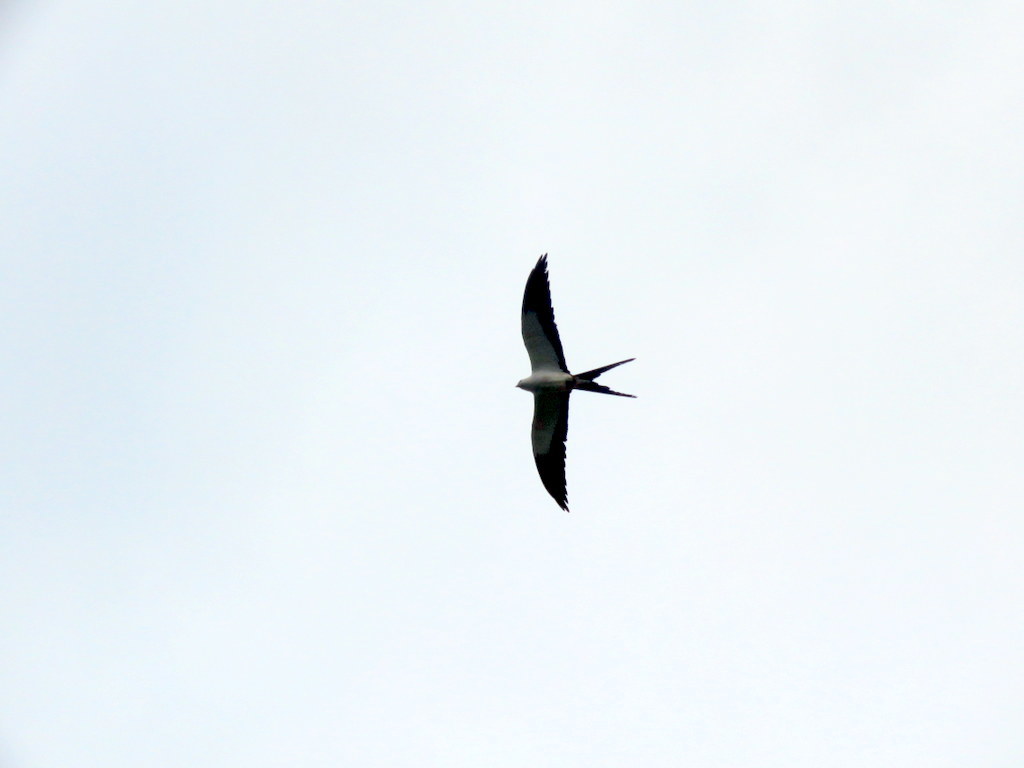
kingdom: Animalia
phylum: Chordata
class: Aves
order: Accipitriformes
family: Accipitridae
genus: Elanoides
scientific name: Elanoides forficatus
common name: Swallow-tailed kite
